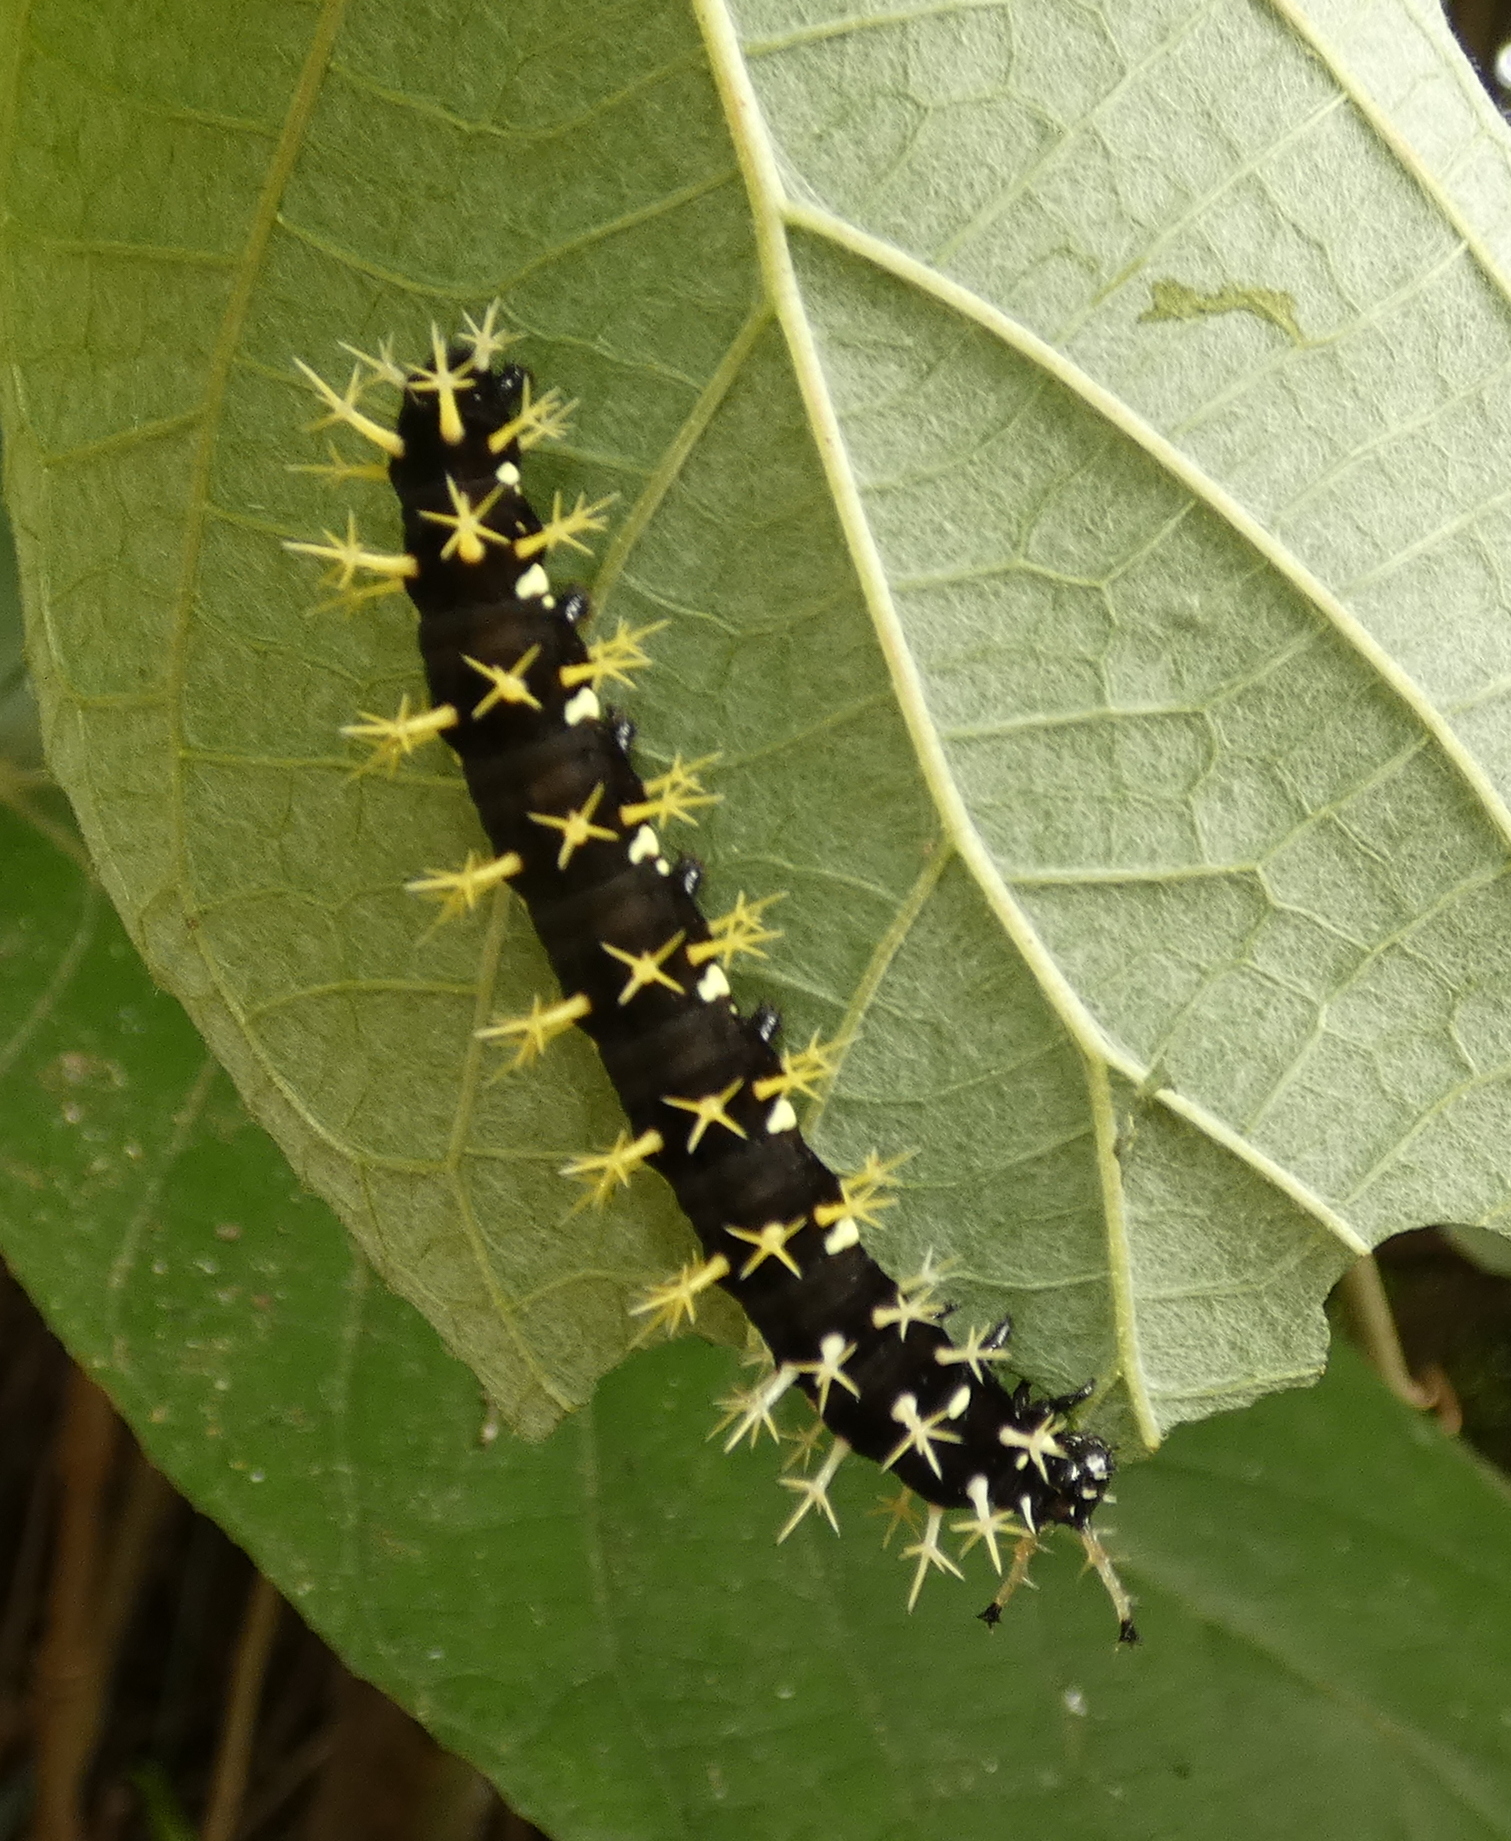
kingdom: Animalia
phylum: Arthropoda
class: Insecta
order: Lepidoptera
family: Nymphalidae
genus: Colobura
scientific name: Colobura dirce
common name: Dirce beauty
